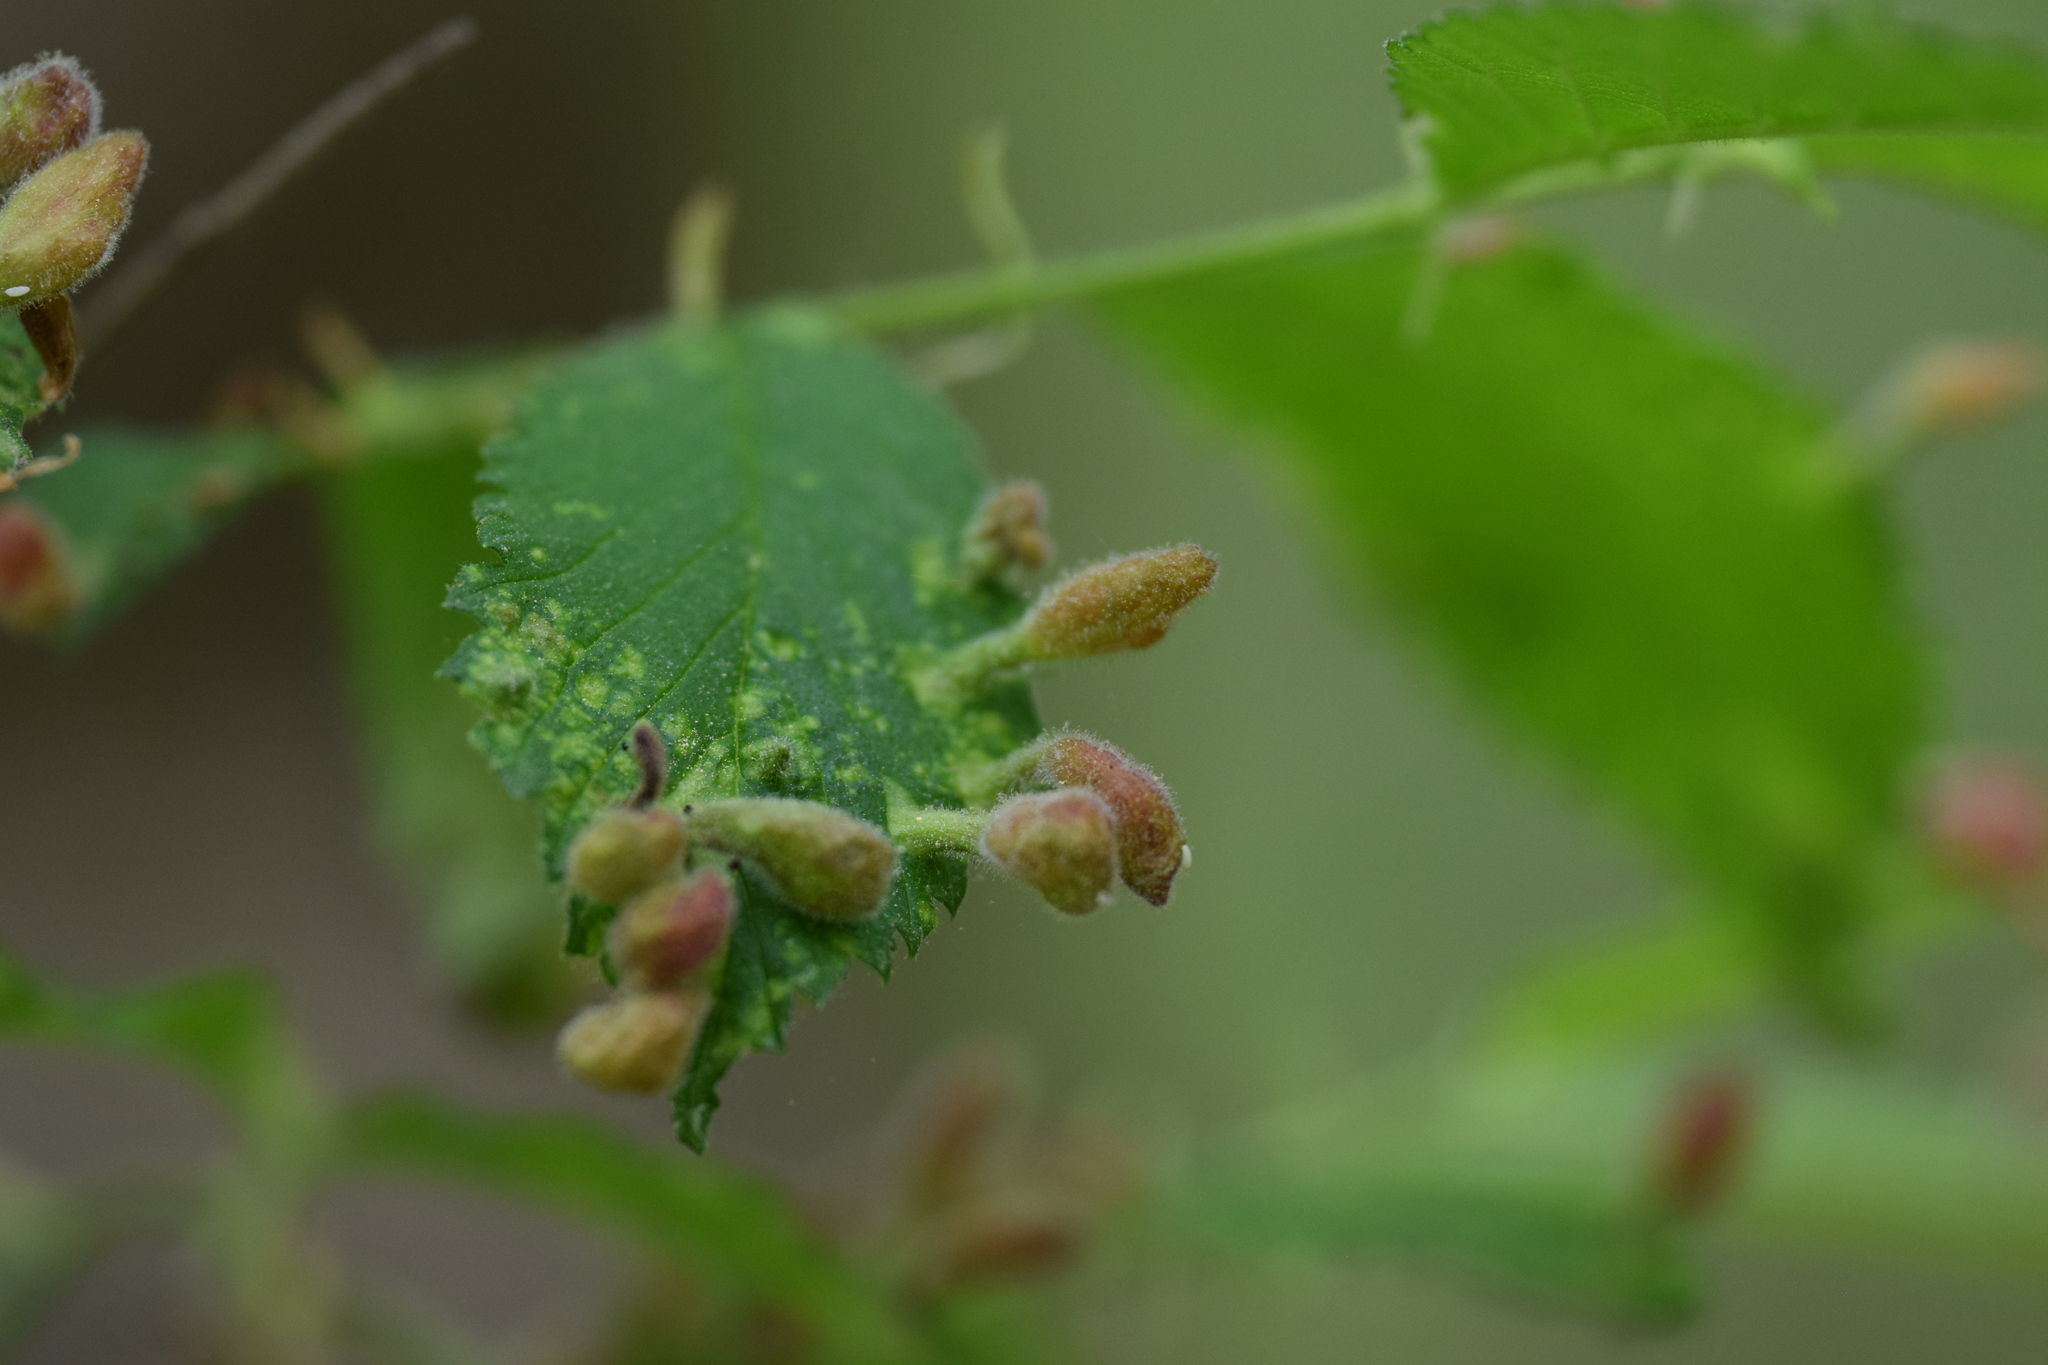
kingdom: Animalia
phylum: Arthropoda
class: Insecta
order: Hemiptera
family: Aphididae
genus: Tetraneura
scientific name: Tetraneura nigriabdominalis
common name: Aphid
